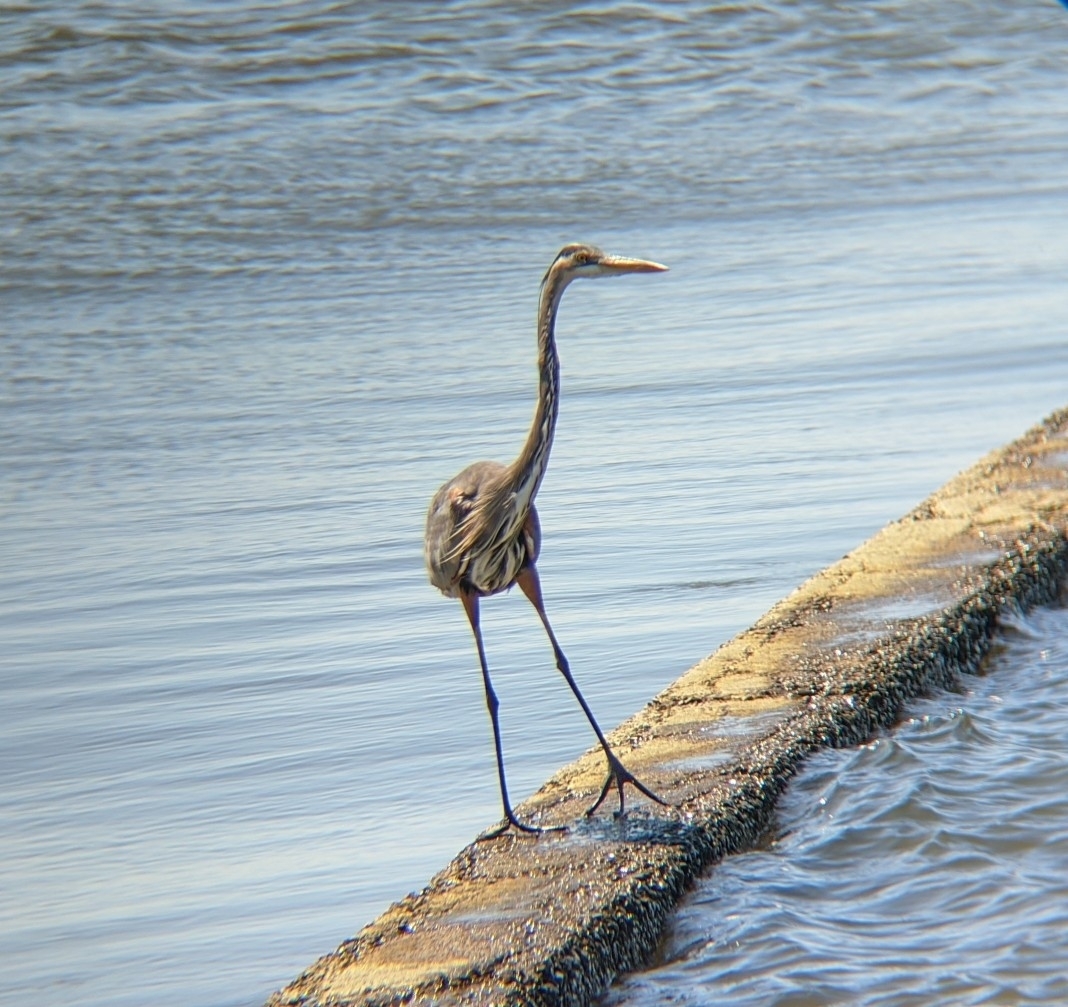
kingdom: Animalia
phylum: Chordata
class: Aves
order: Pelecaniformes
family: Ardeidae
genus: Ardea
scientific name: Ardea herodias
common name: Great blue heron
